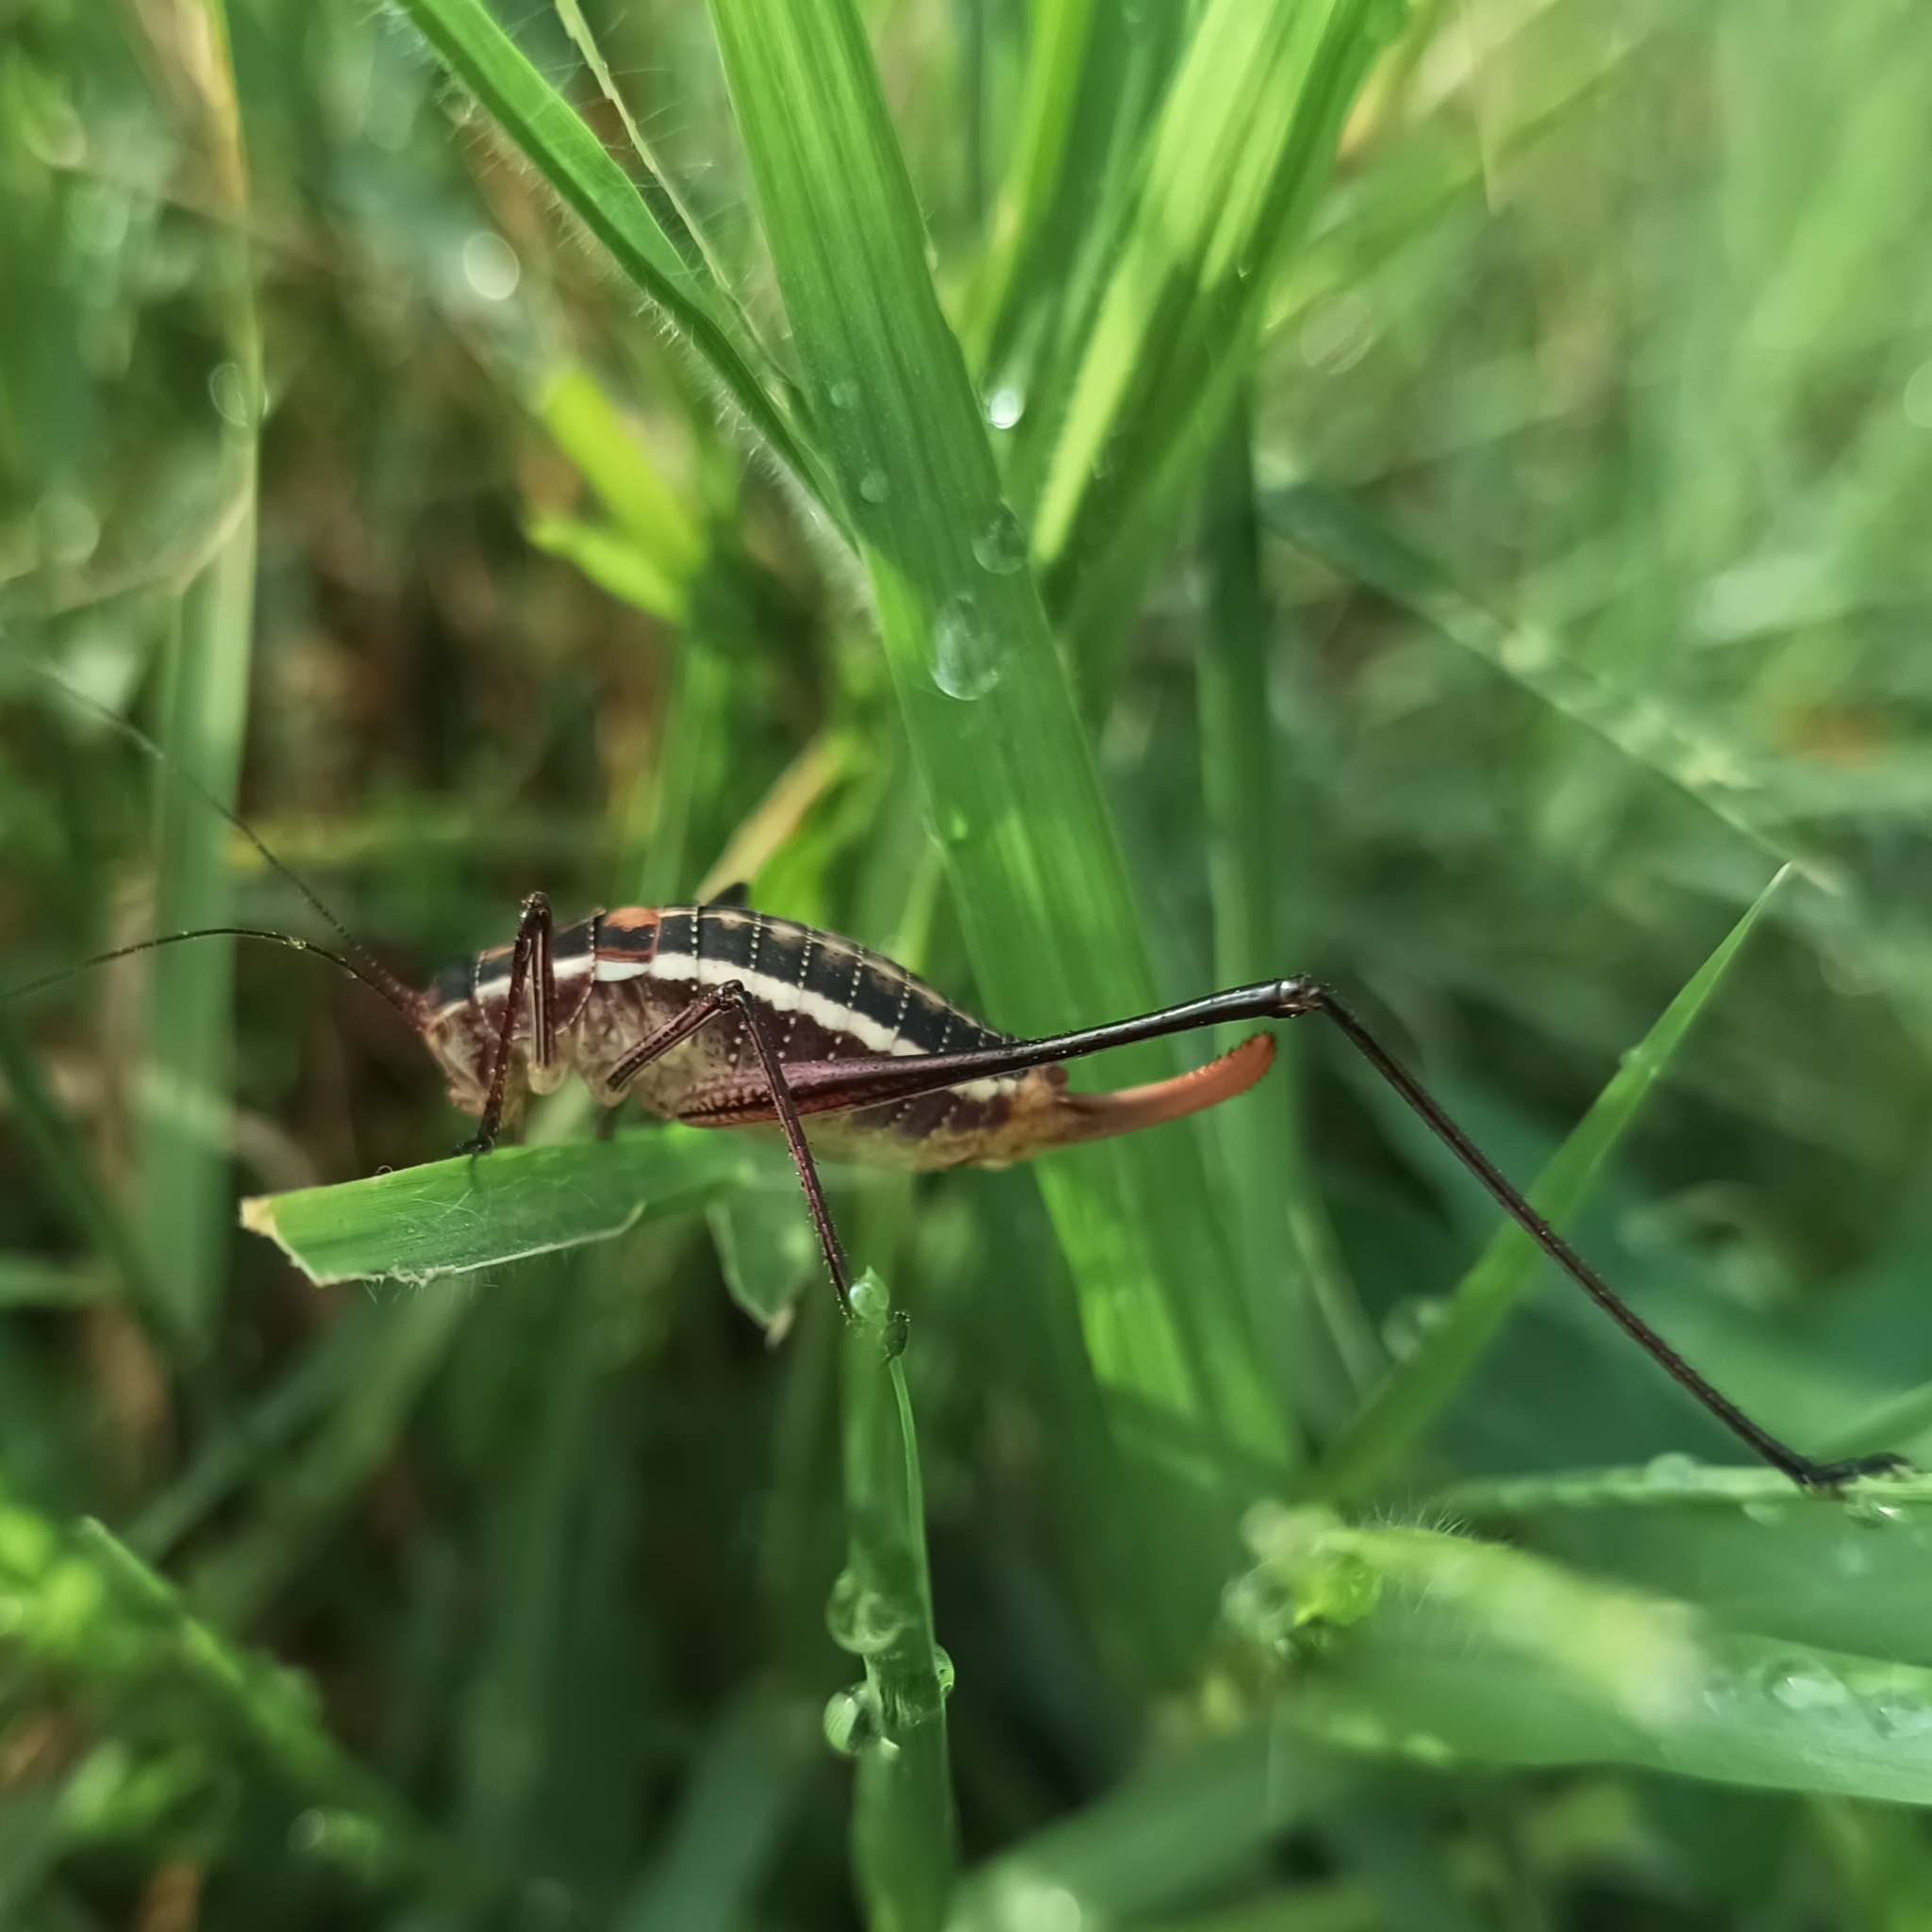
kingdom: Animalia
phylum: Arthropoda
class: Insecta
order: Orthoptera
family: Tettigoniidae
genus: Obolopteryx
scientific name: Obolopteryx brevihastata
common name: Common short-winged katydid
